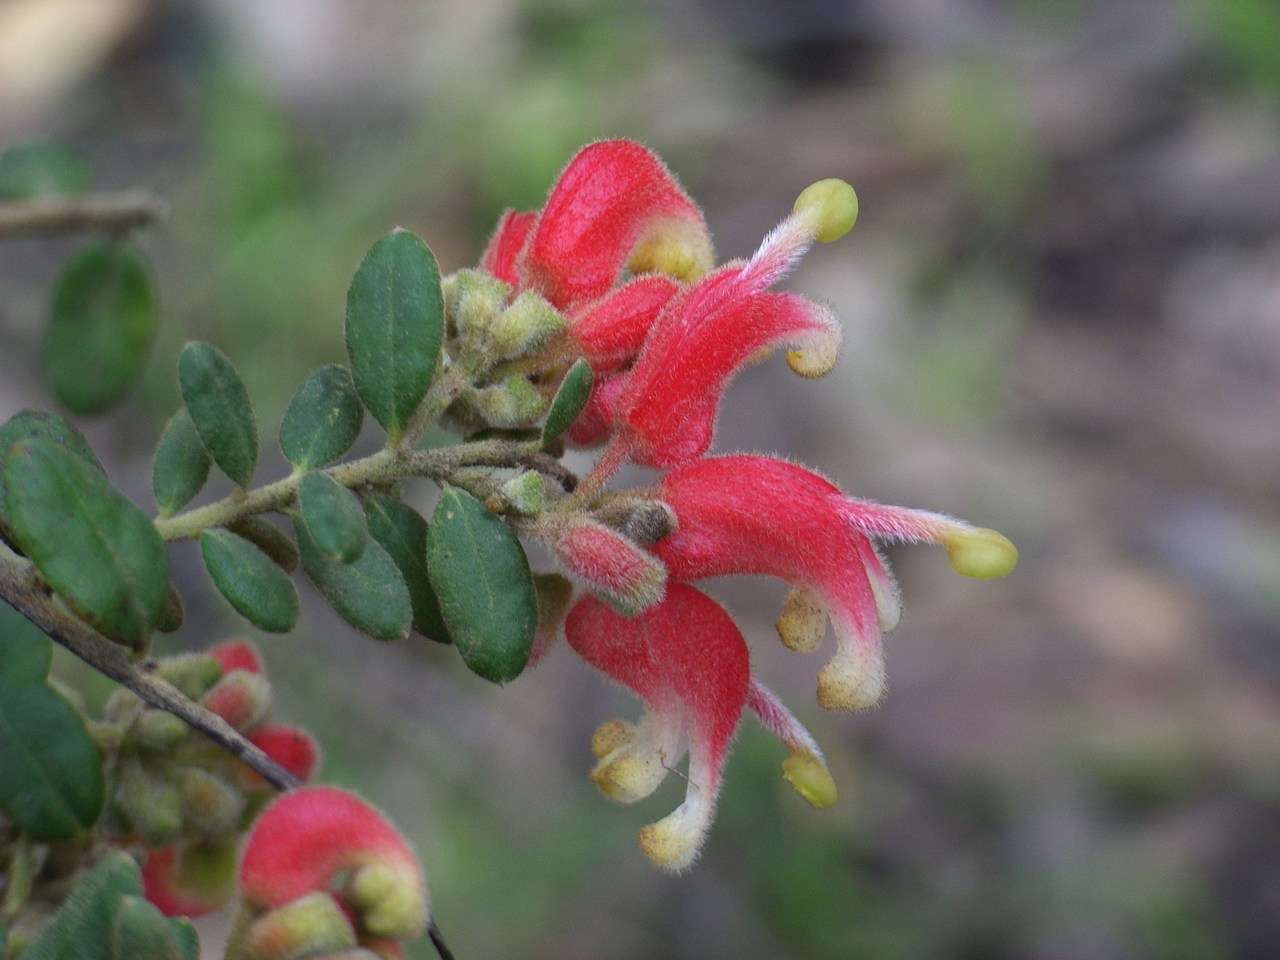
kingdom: Plantae
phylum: Tracheophyta
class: Magnoliopsida
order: Proteales
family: Proteaceae
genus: Grevillea
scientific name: Grevillea alpina
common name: Catclaws grevillea
